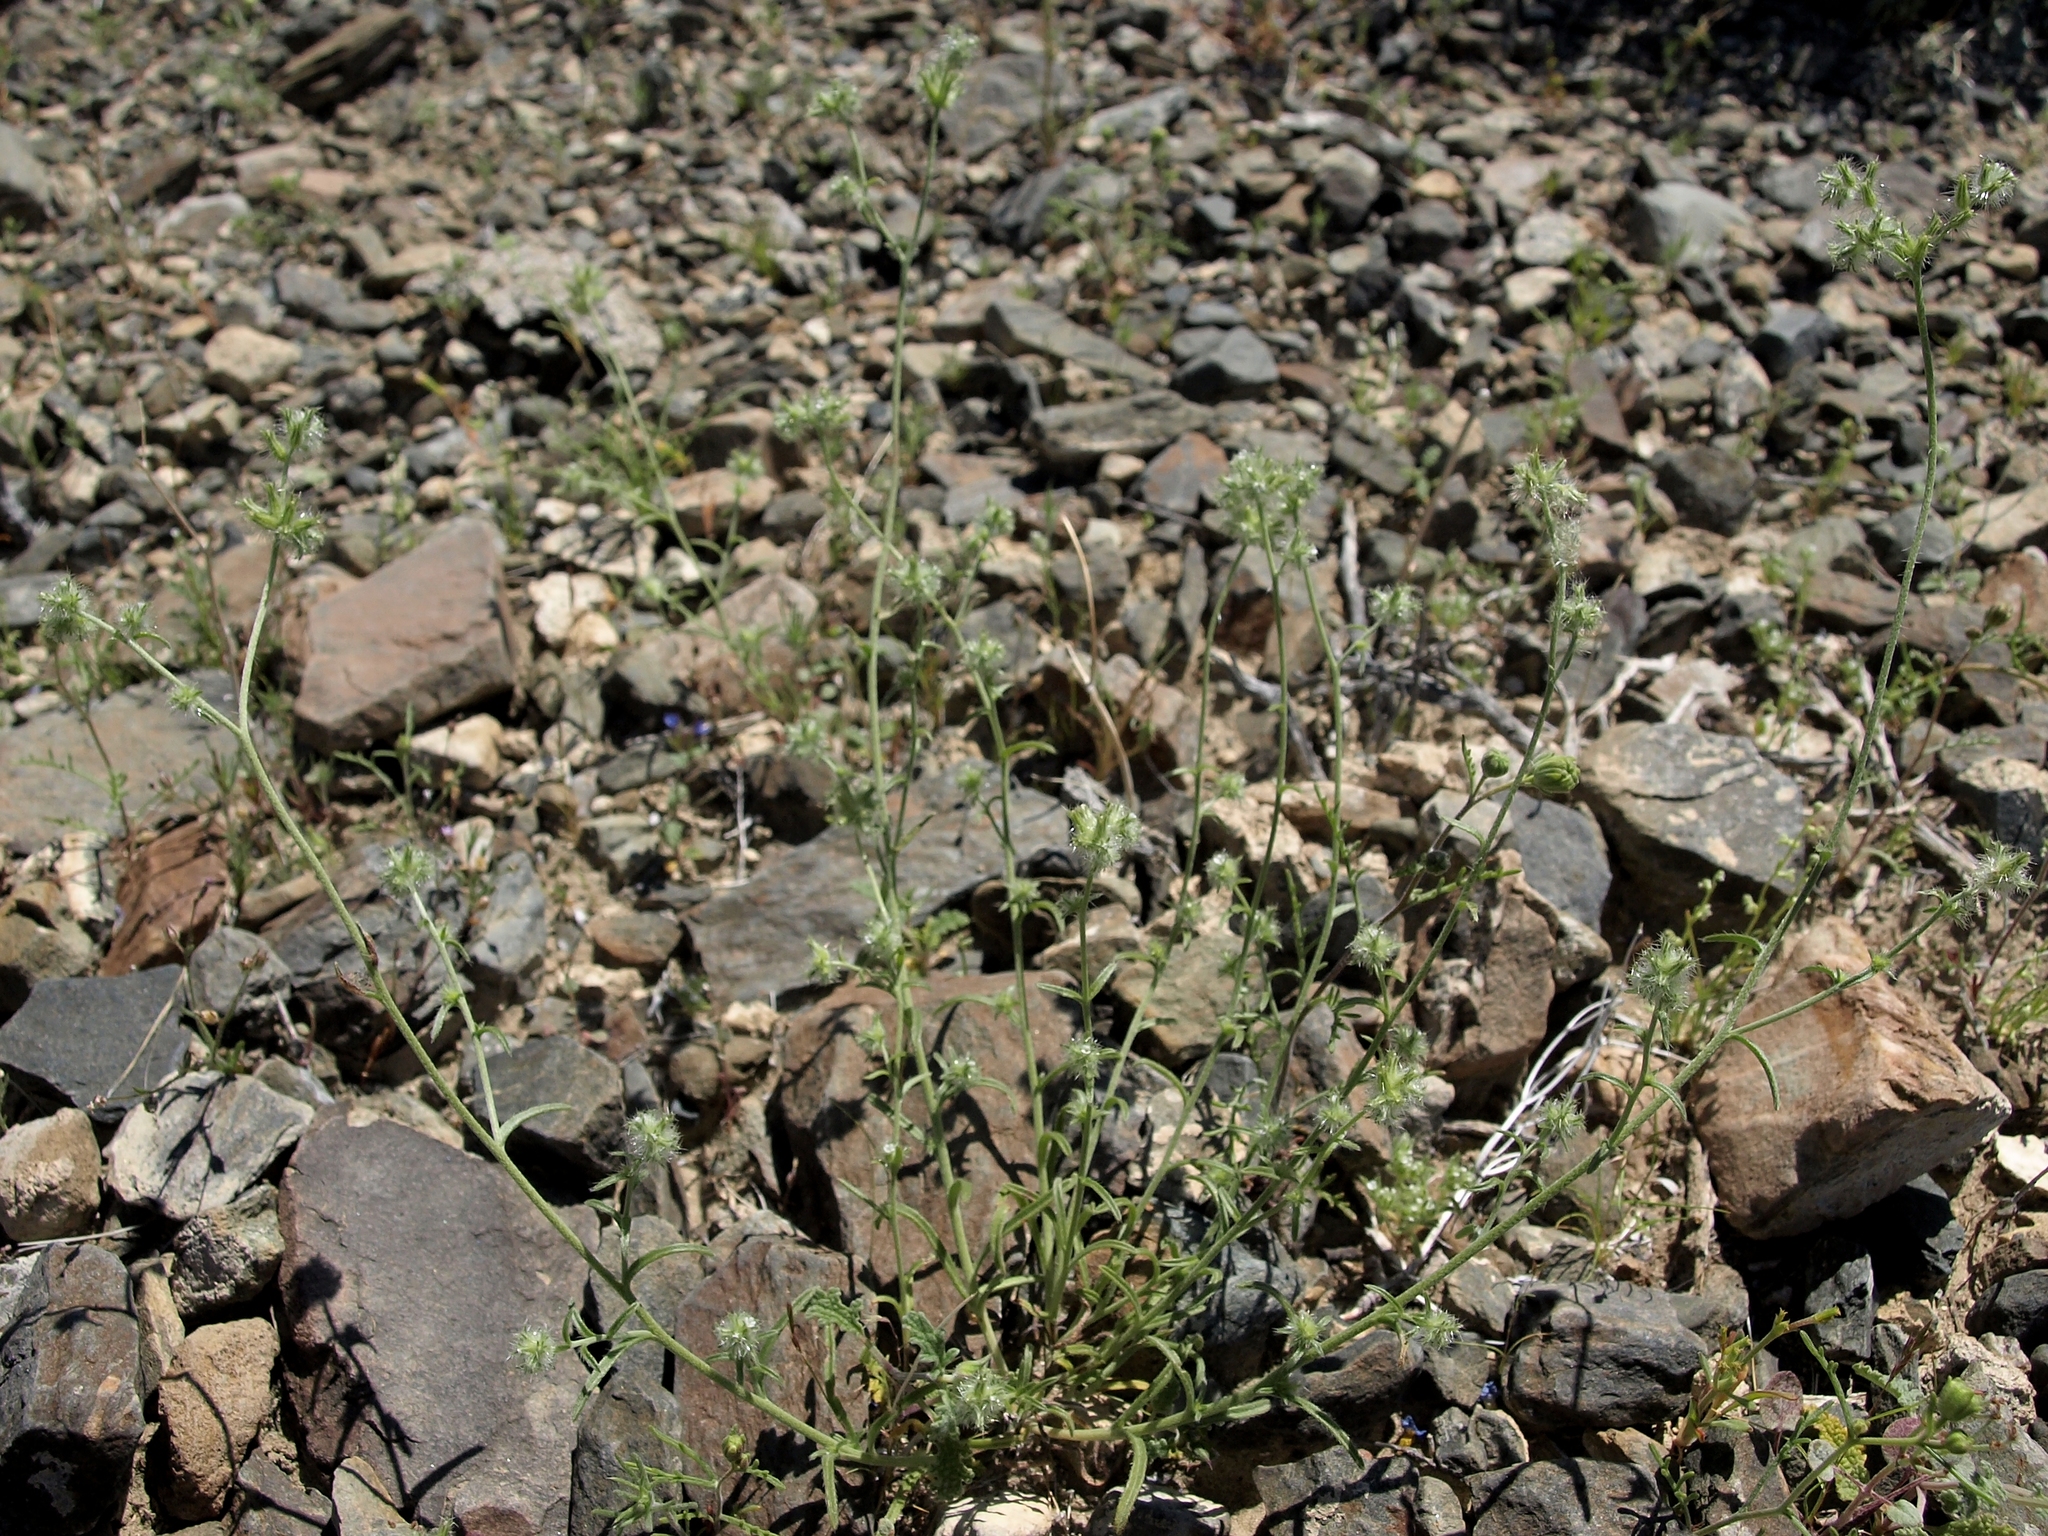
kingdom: Plantae
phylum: Tracheophyta
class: Magnoliopsida
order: Boraginales
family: Boraginaceae
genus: Cryptantha
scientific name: Cryptantha nevadensis
